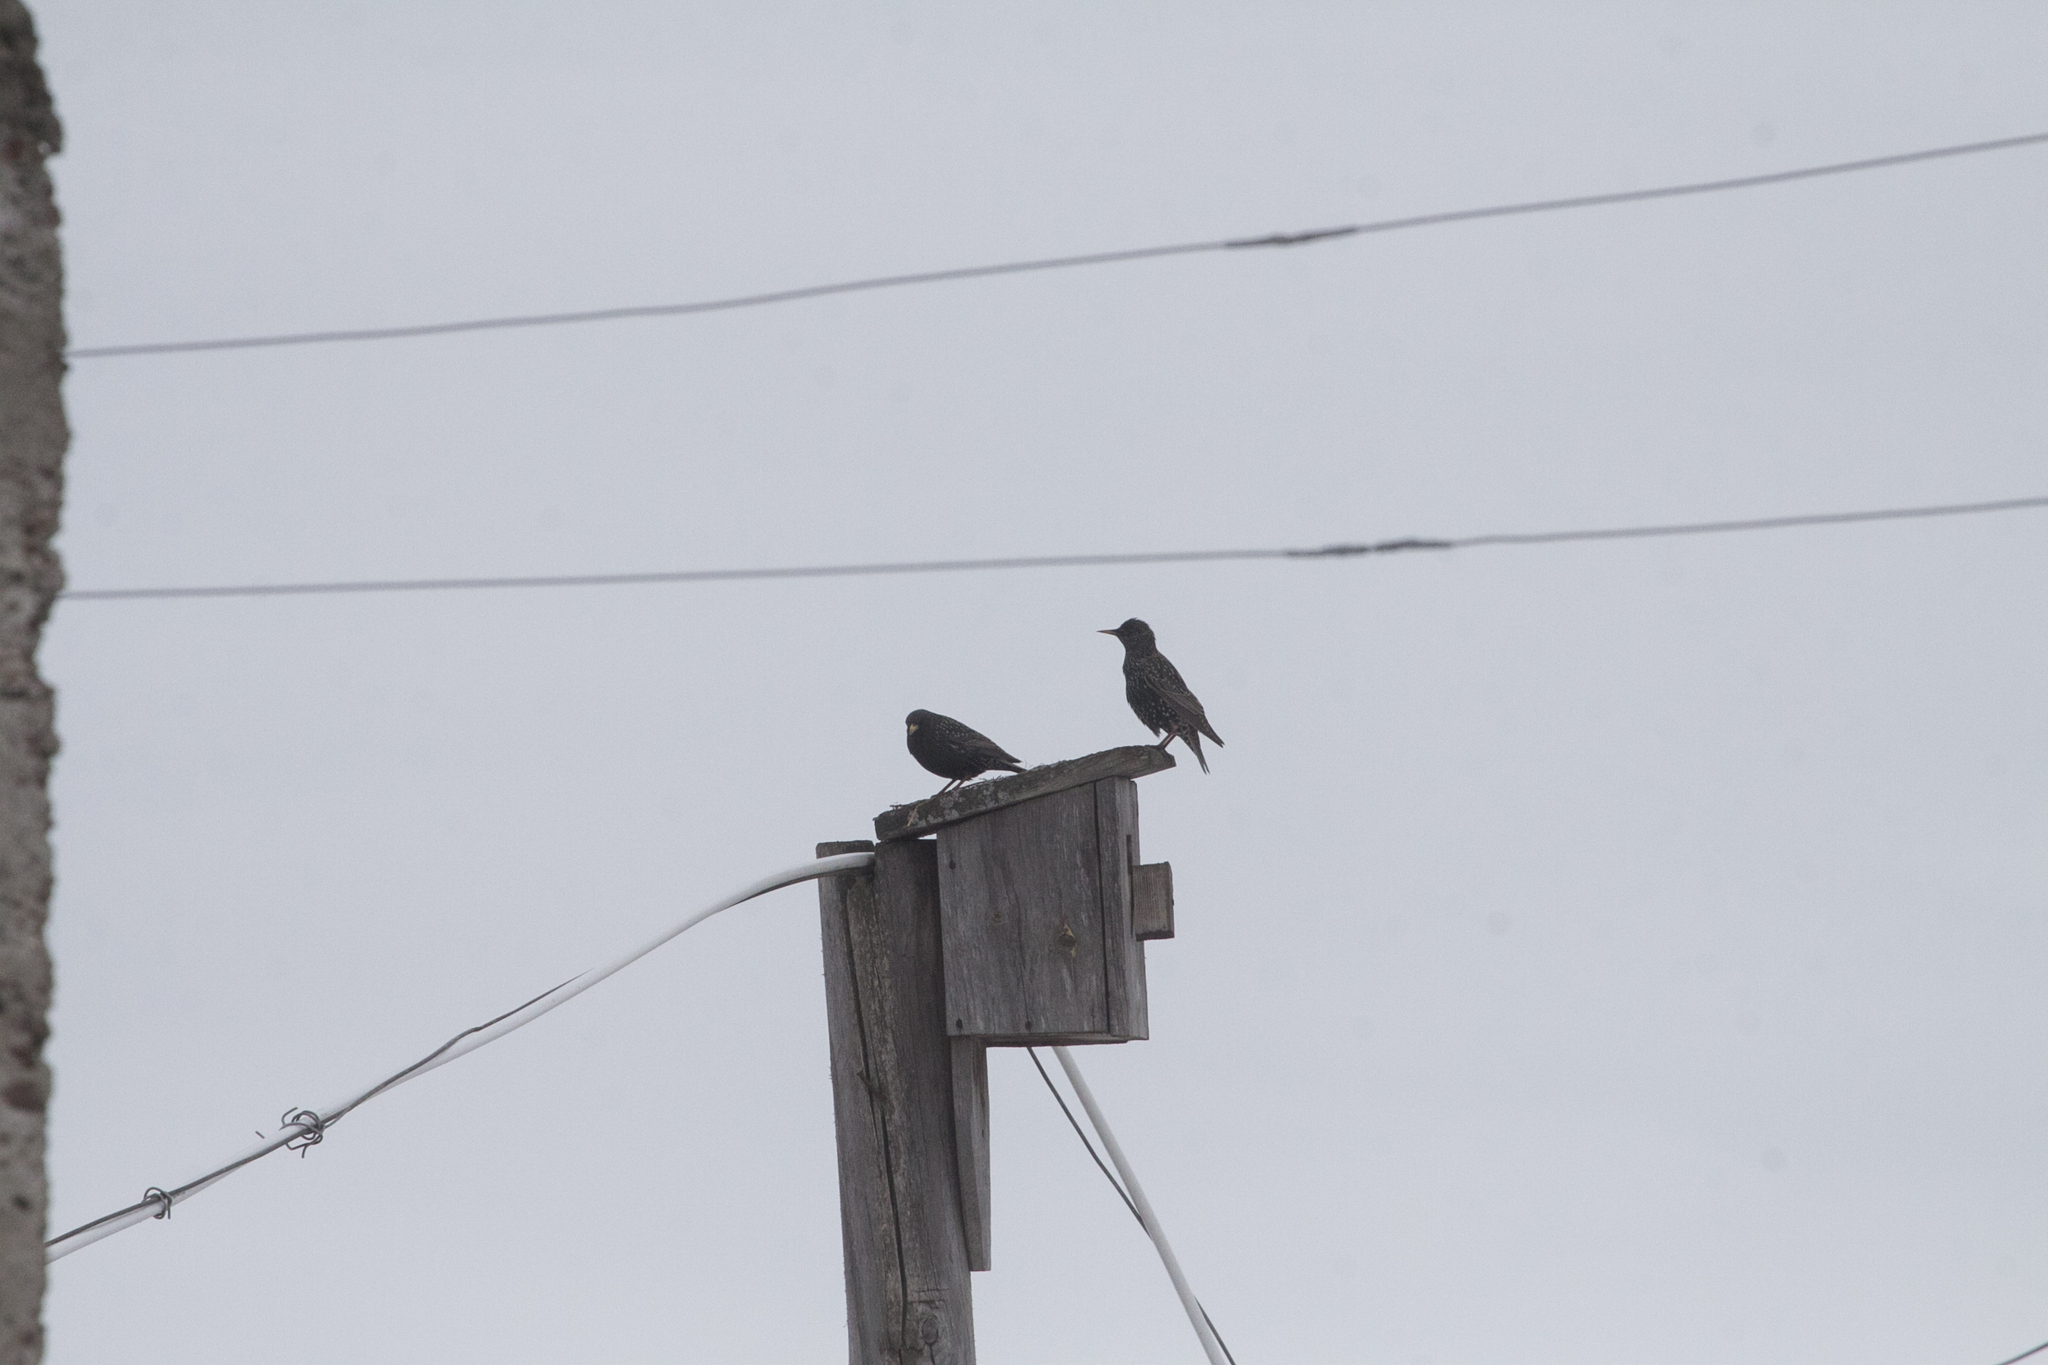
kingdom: Animalia
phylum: Chordata
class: Aves
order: Passeriformes
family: Sturnidae
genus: Sturnus
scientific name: Sturnus vulgaris
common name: Common starling
